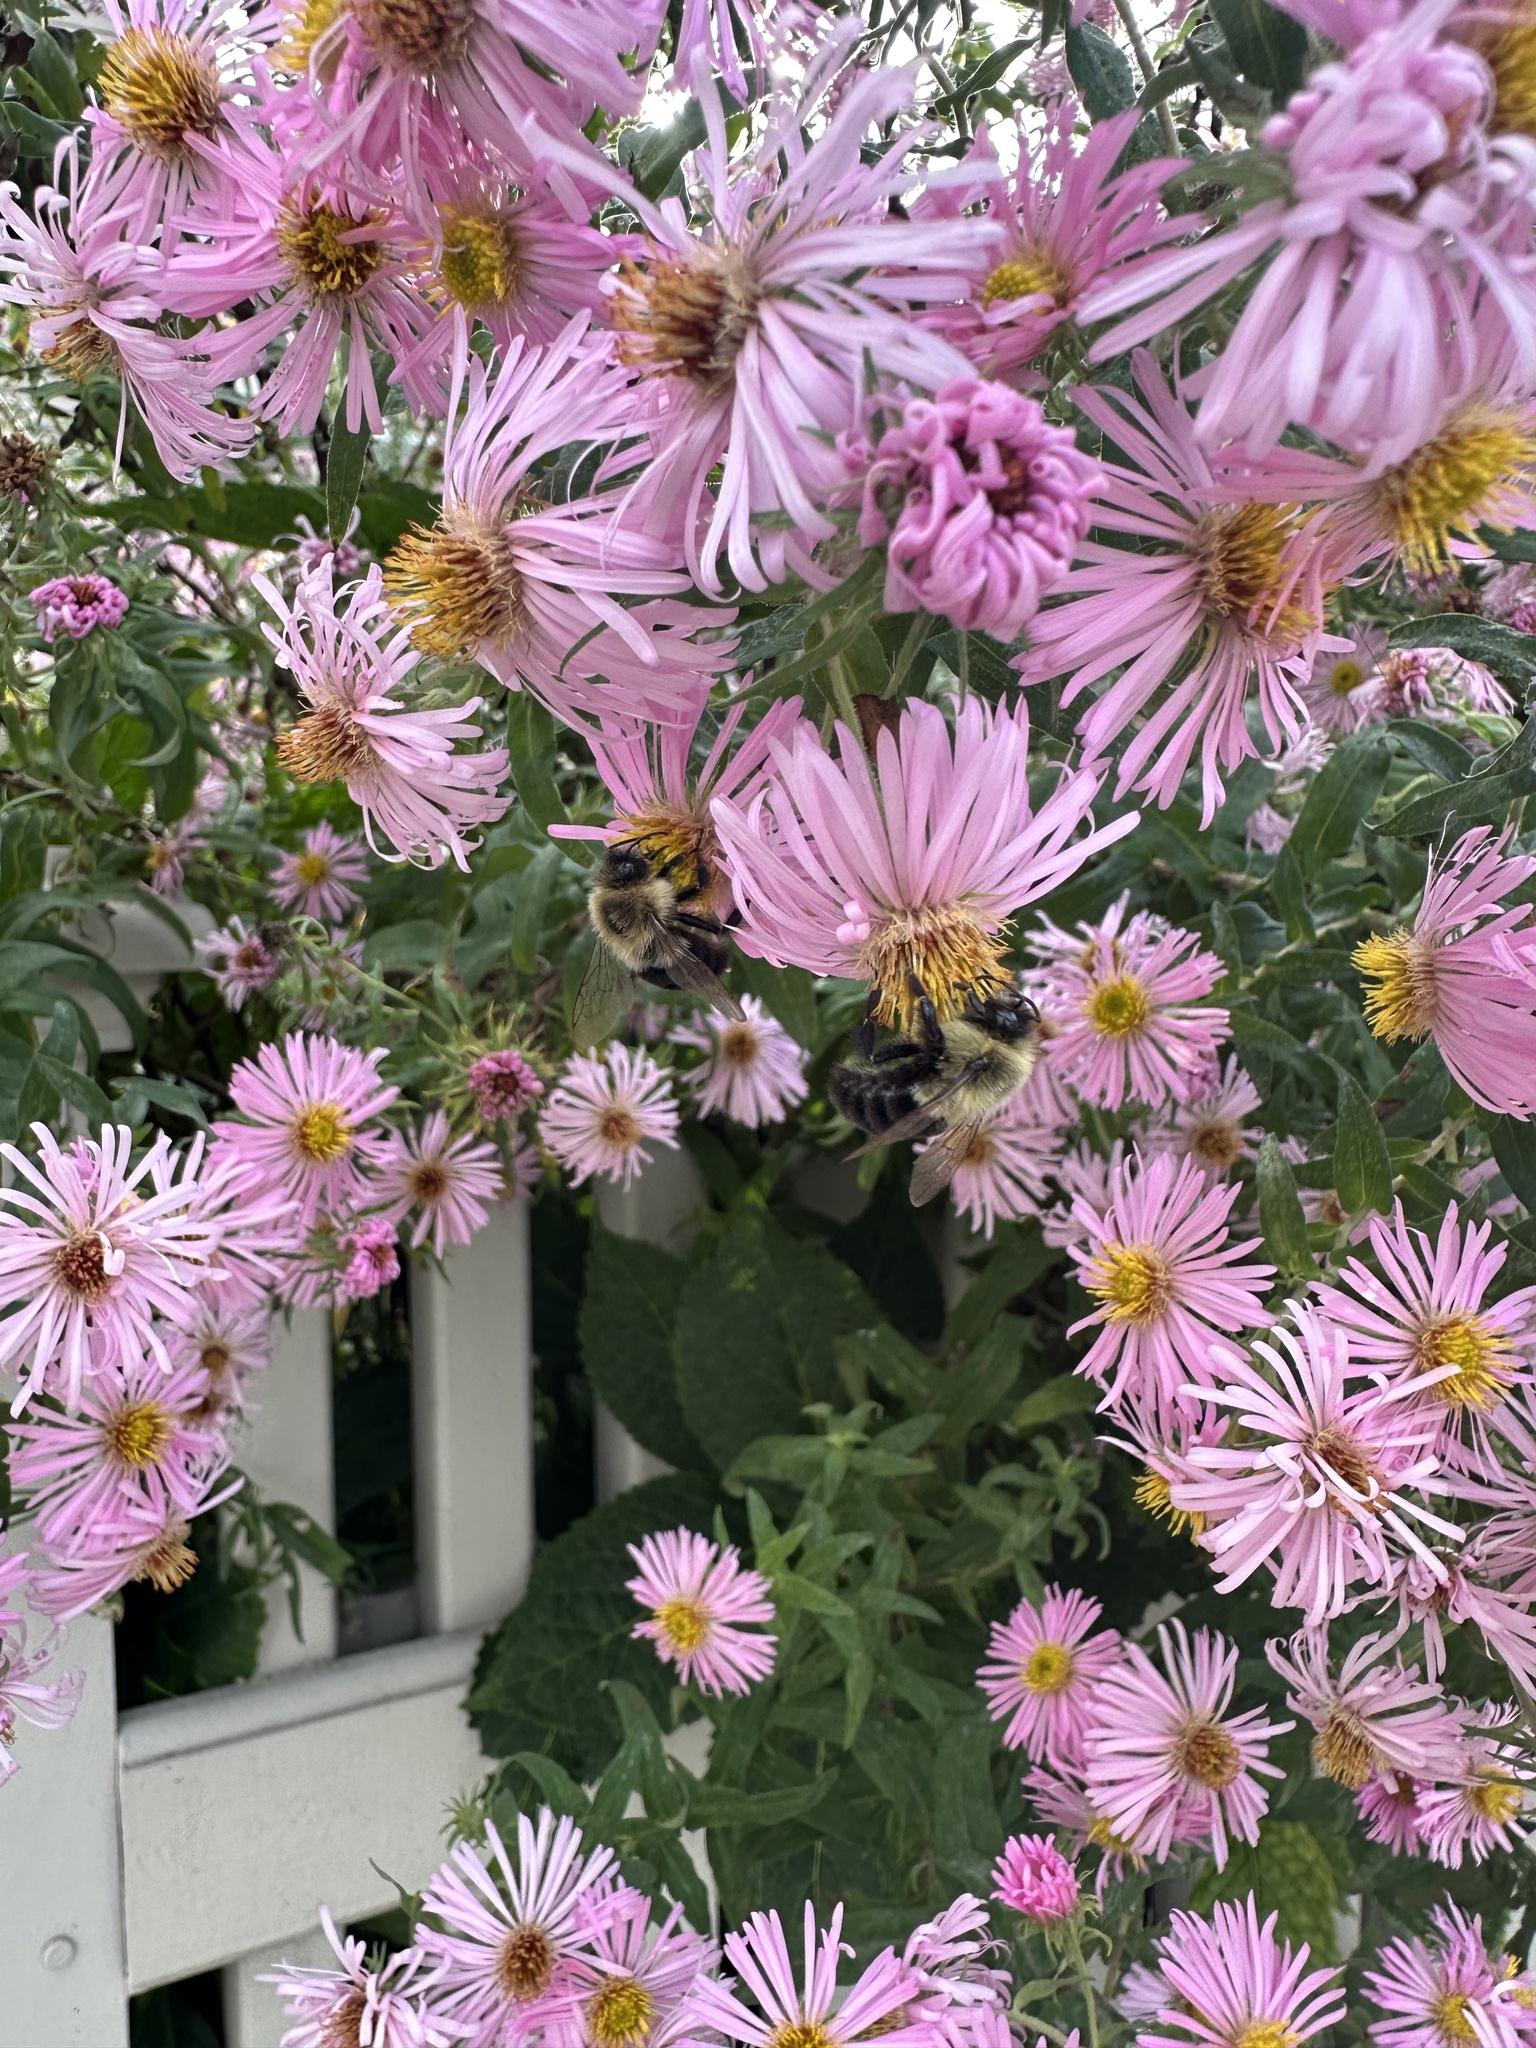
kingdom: Animalia
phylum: Arthropoda
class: Insecta
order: Hymenoptera
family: Apidae
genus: Bombus
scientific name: Bombus impatiens
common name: Common eastern bumble bee
